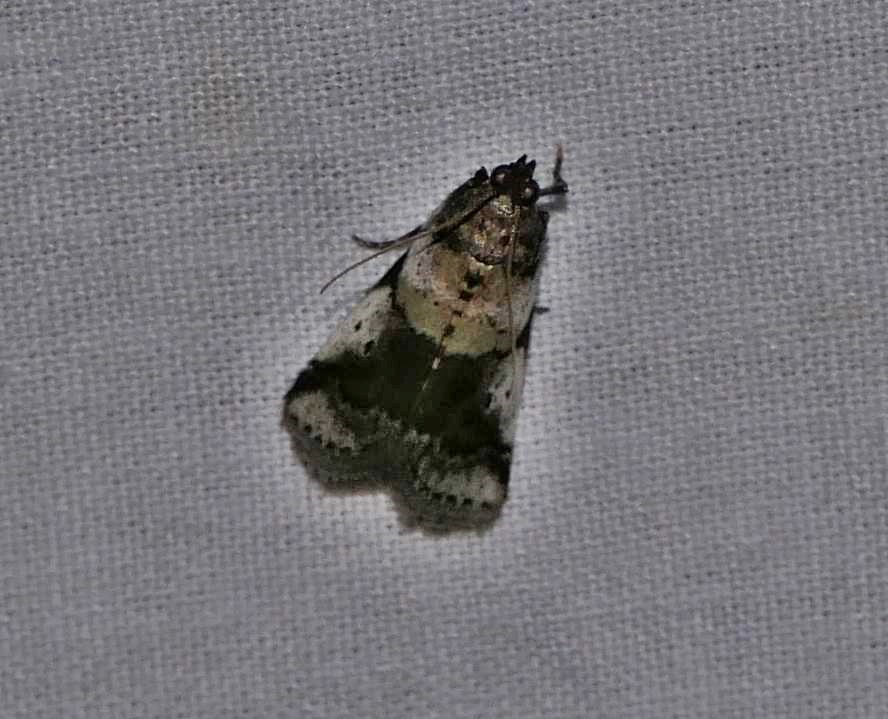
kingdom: Animalia
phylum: Arthropoda
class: Insecta
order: Lepidoptera
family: Pyralidae
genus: Acrobasis
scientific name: Acrobasis indigenella
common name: Leaf crumpler moth
